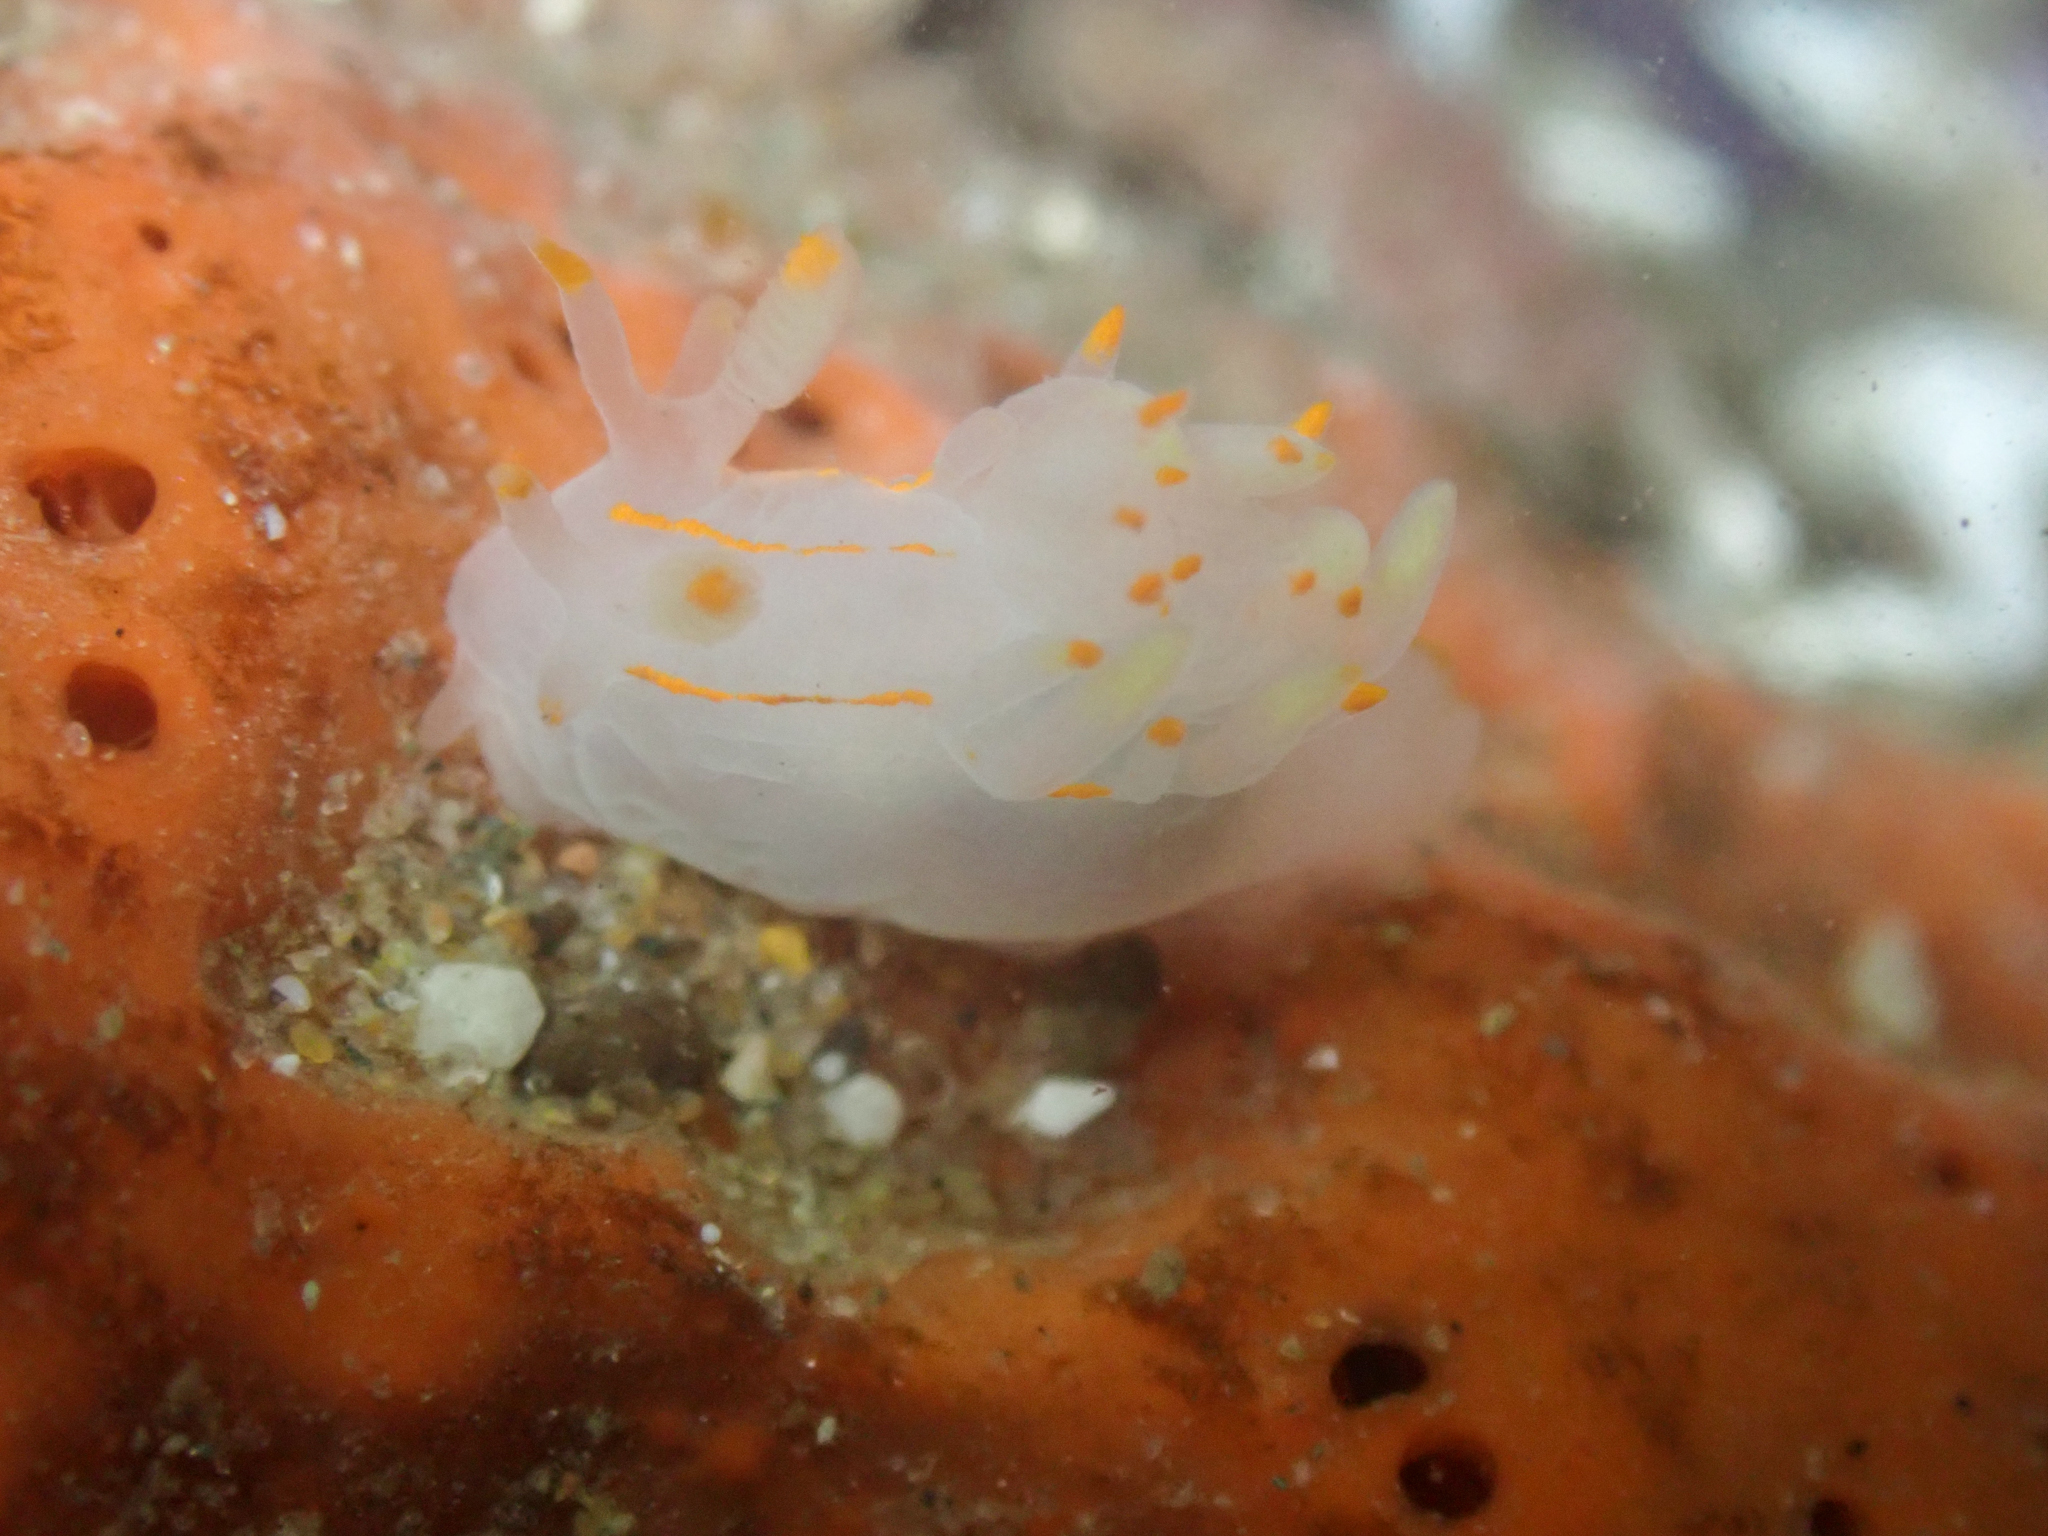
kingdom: Animalia
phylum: Mollusca
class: Gastropoda
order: Nudibranchia
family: Goniodorididae
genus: Ancula
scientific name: Ancula pacifica
